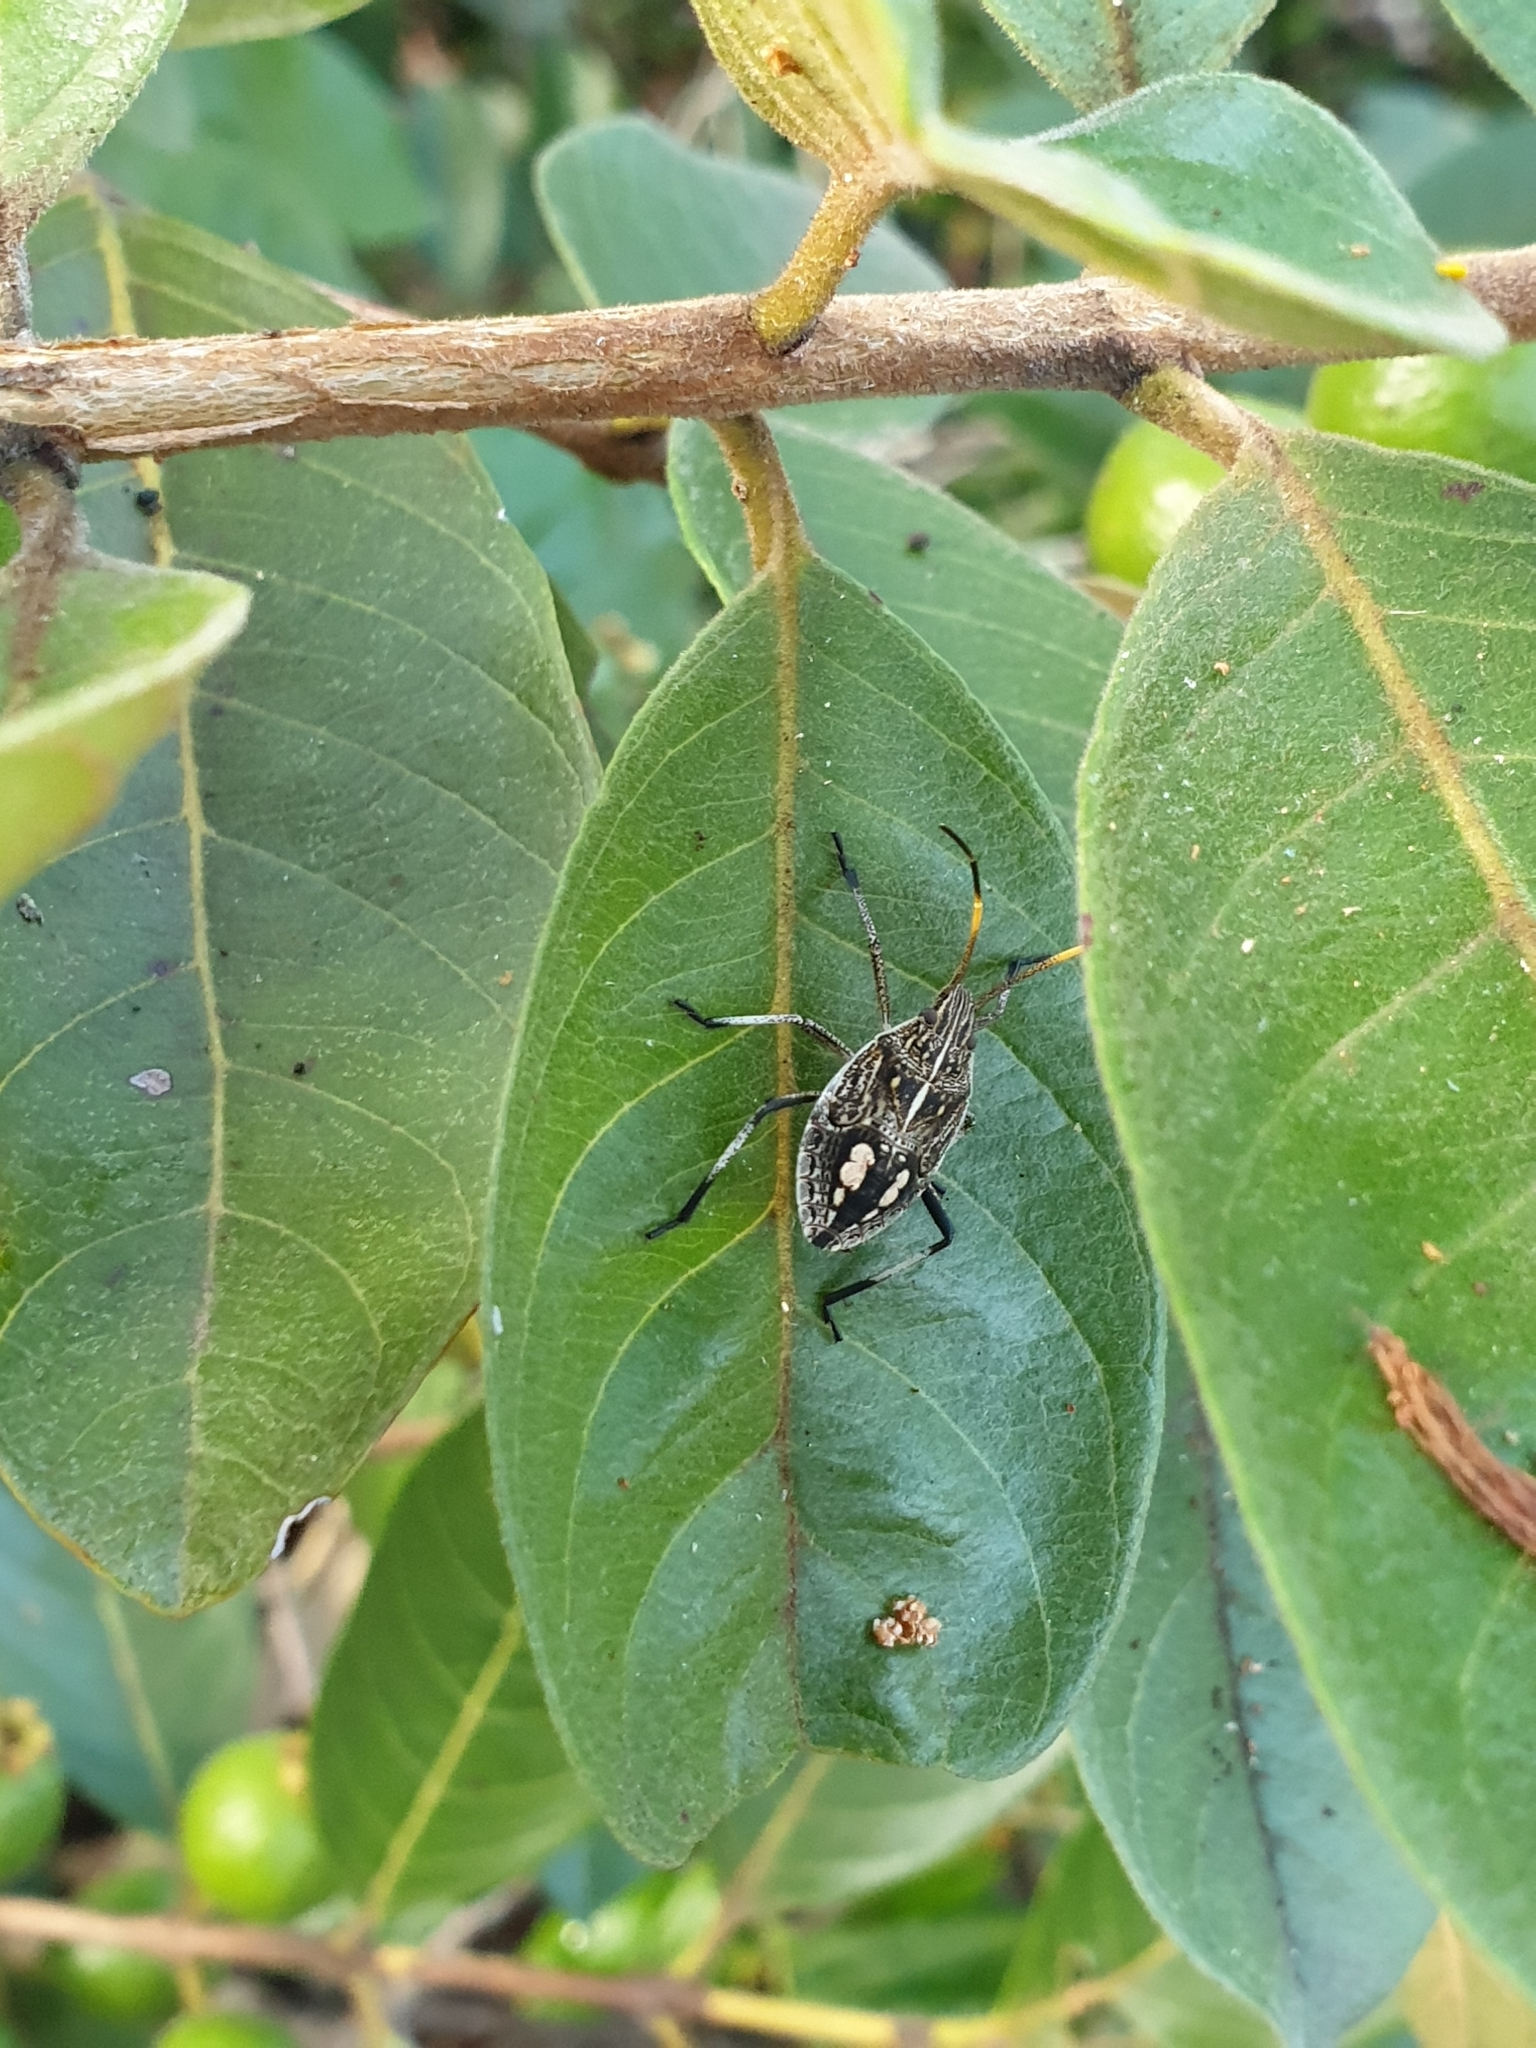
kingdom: Animalia
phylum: Arthropoda
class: Insecta
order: Hemiptera
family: Pentatomidae
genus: Poecilometis
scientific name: Poecilometis
